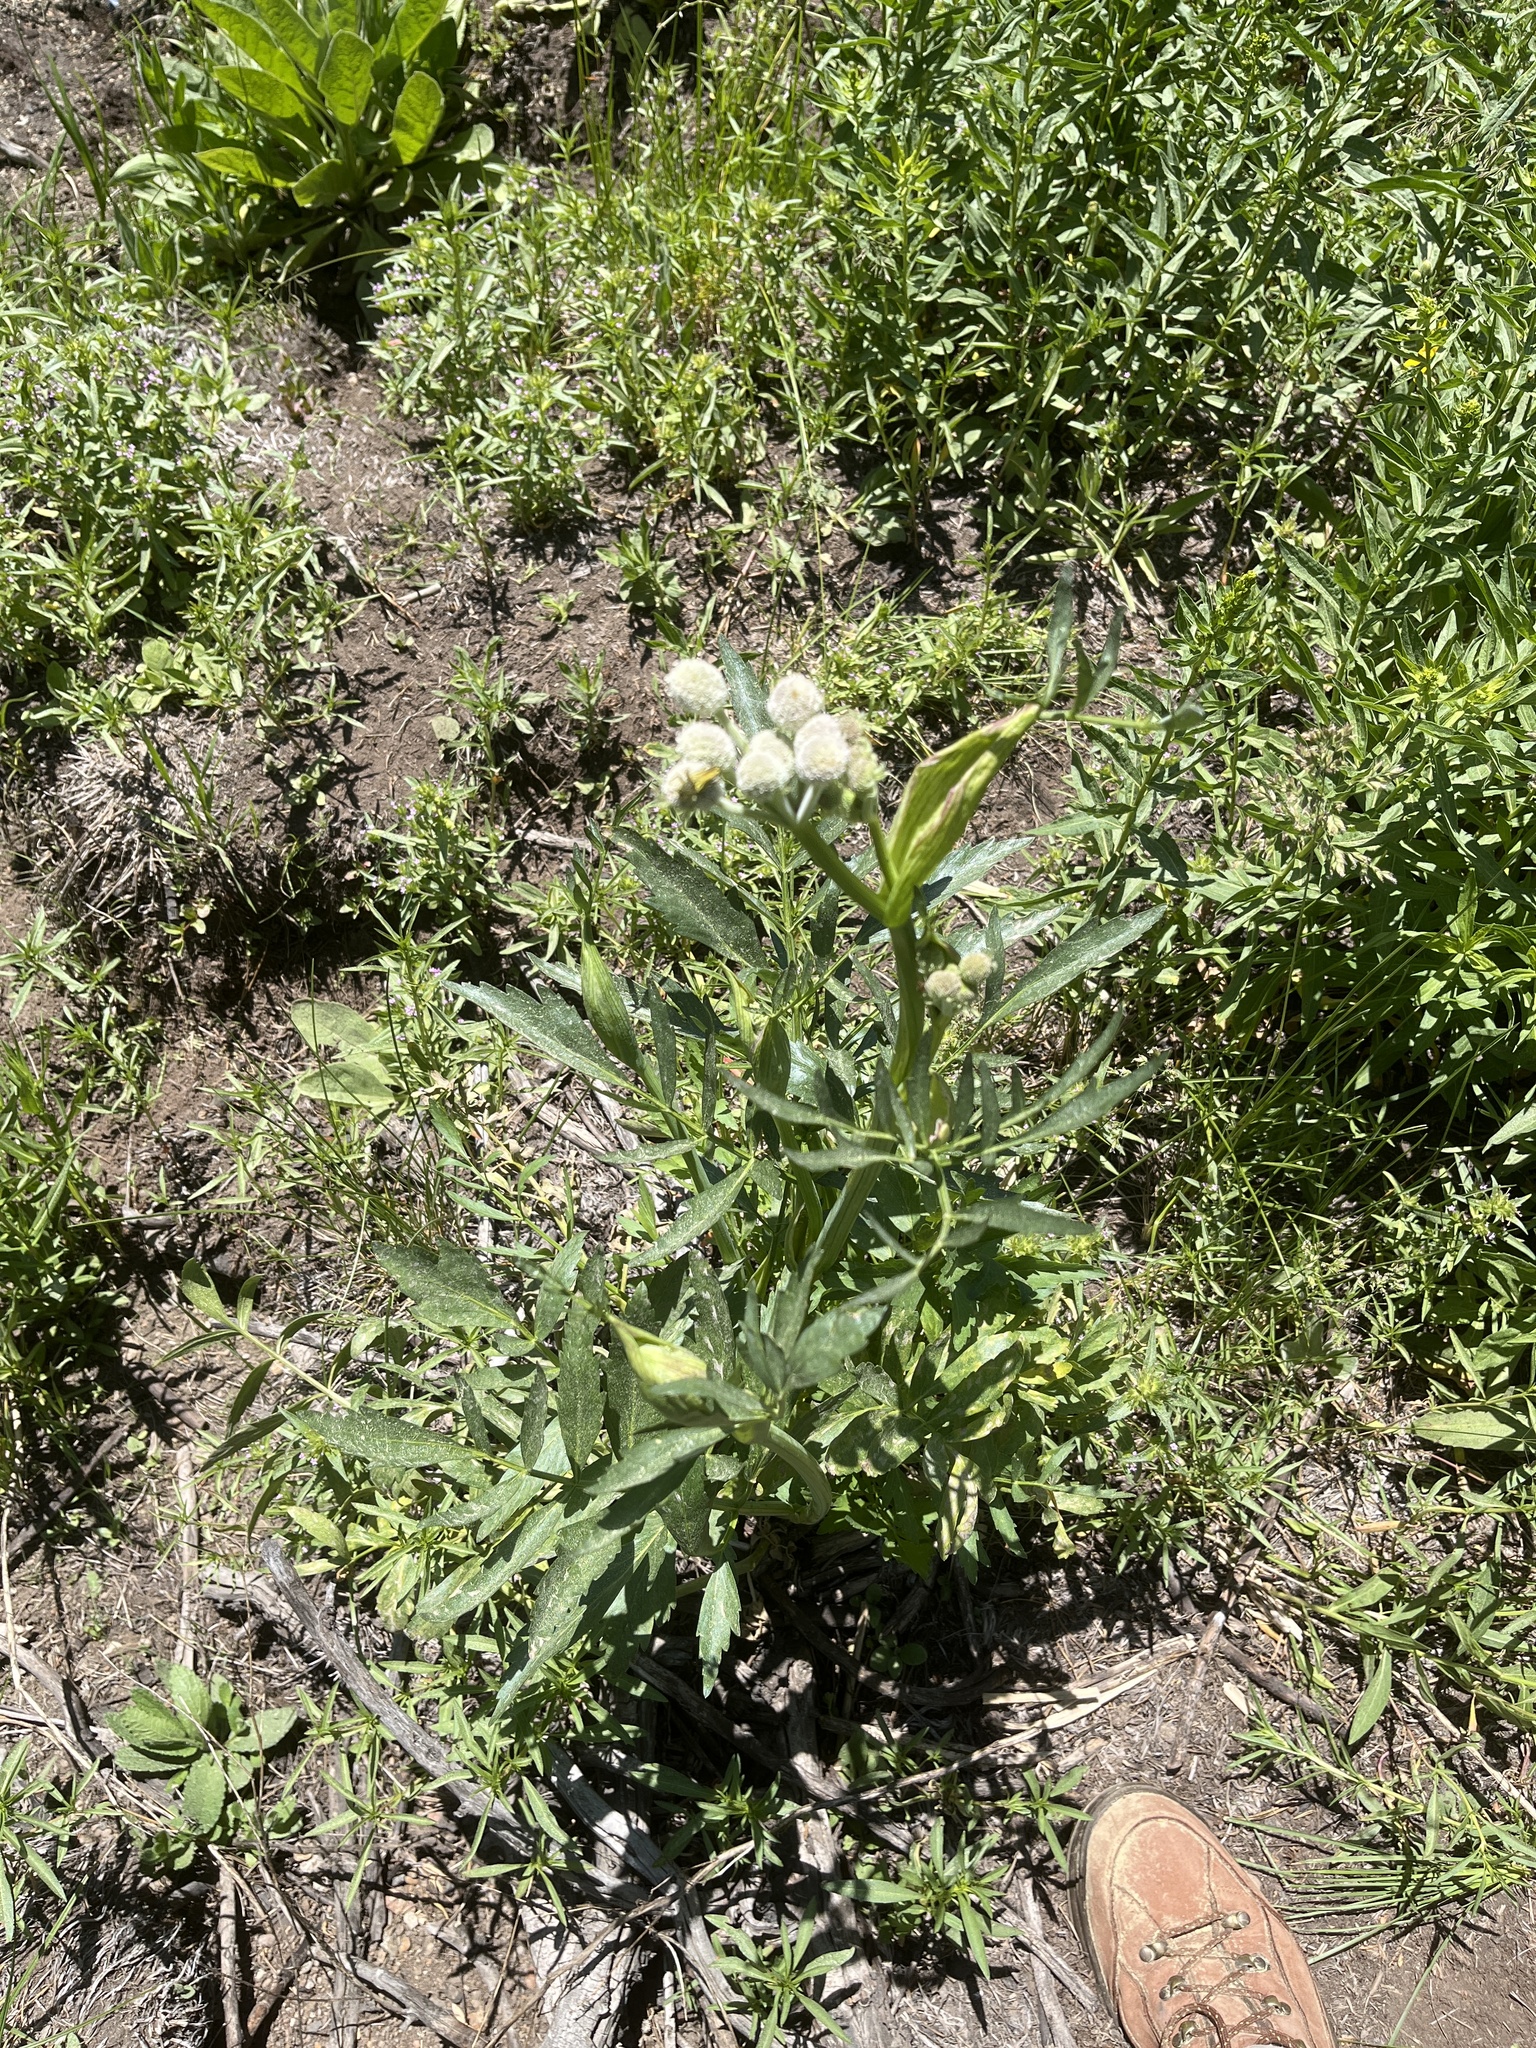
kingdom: Plantae
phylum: Tracheophyta
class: Magnoliopsida
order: Apiales
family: Apiaceae
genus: Angelica
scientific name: Angelica capitellata
